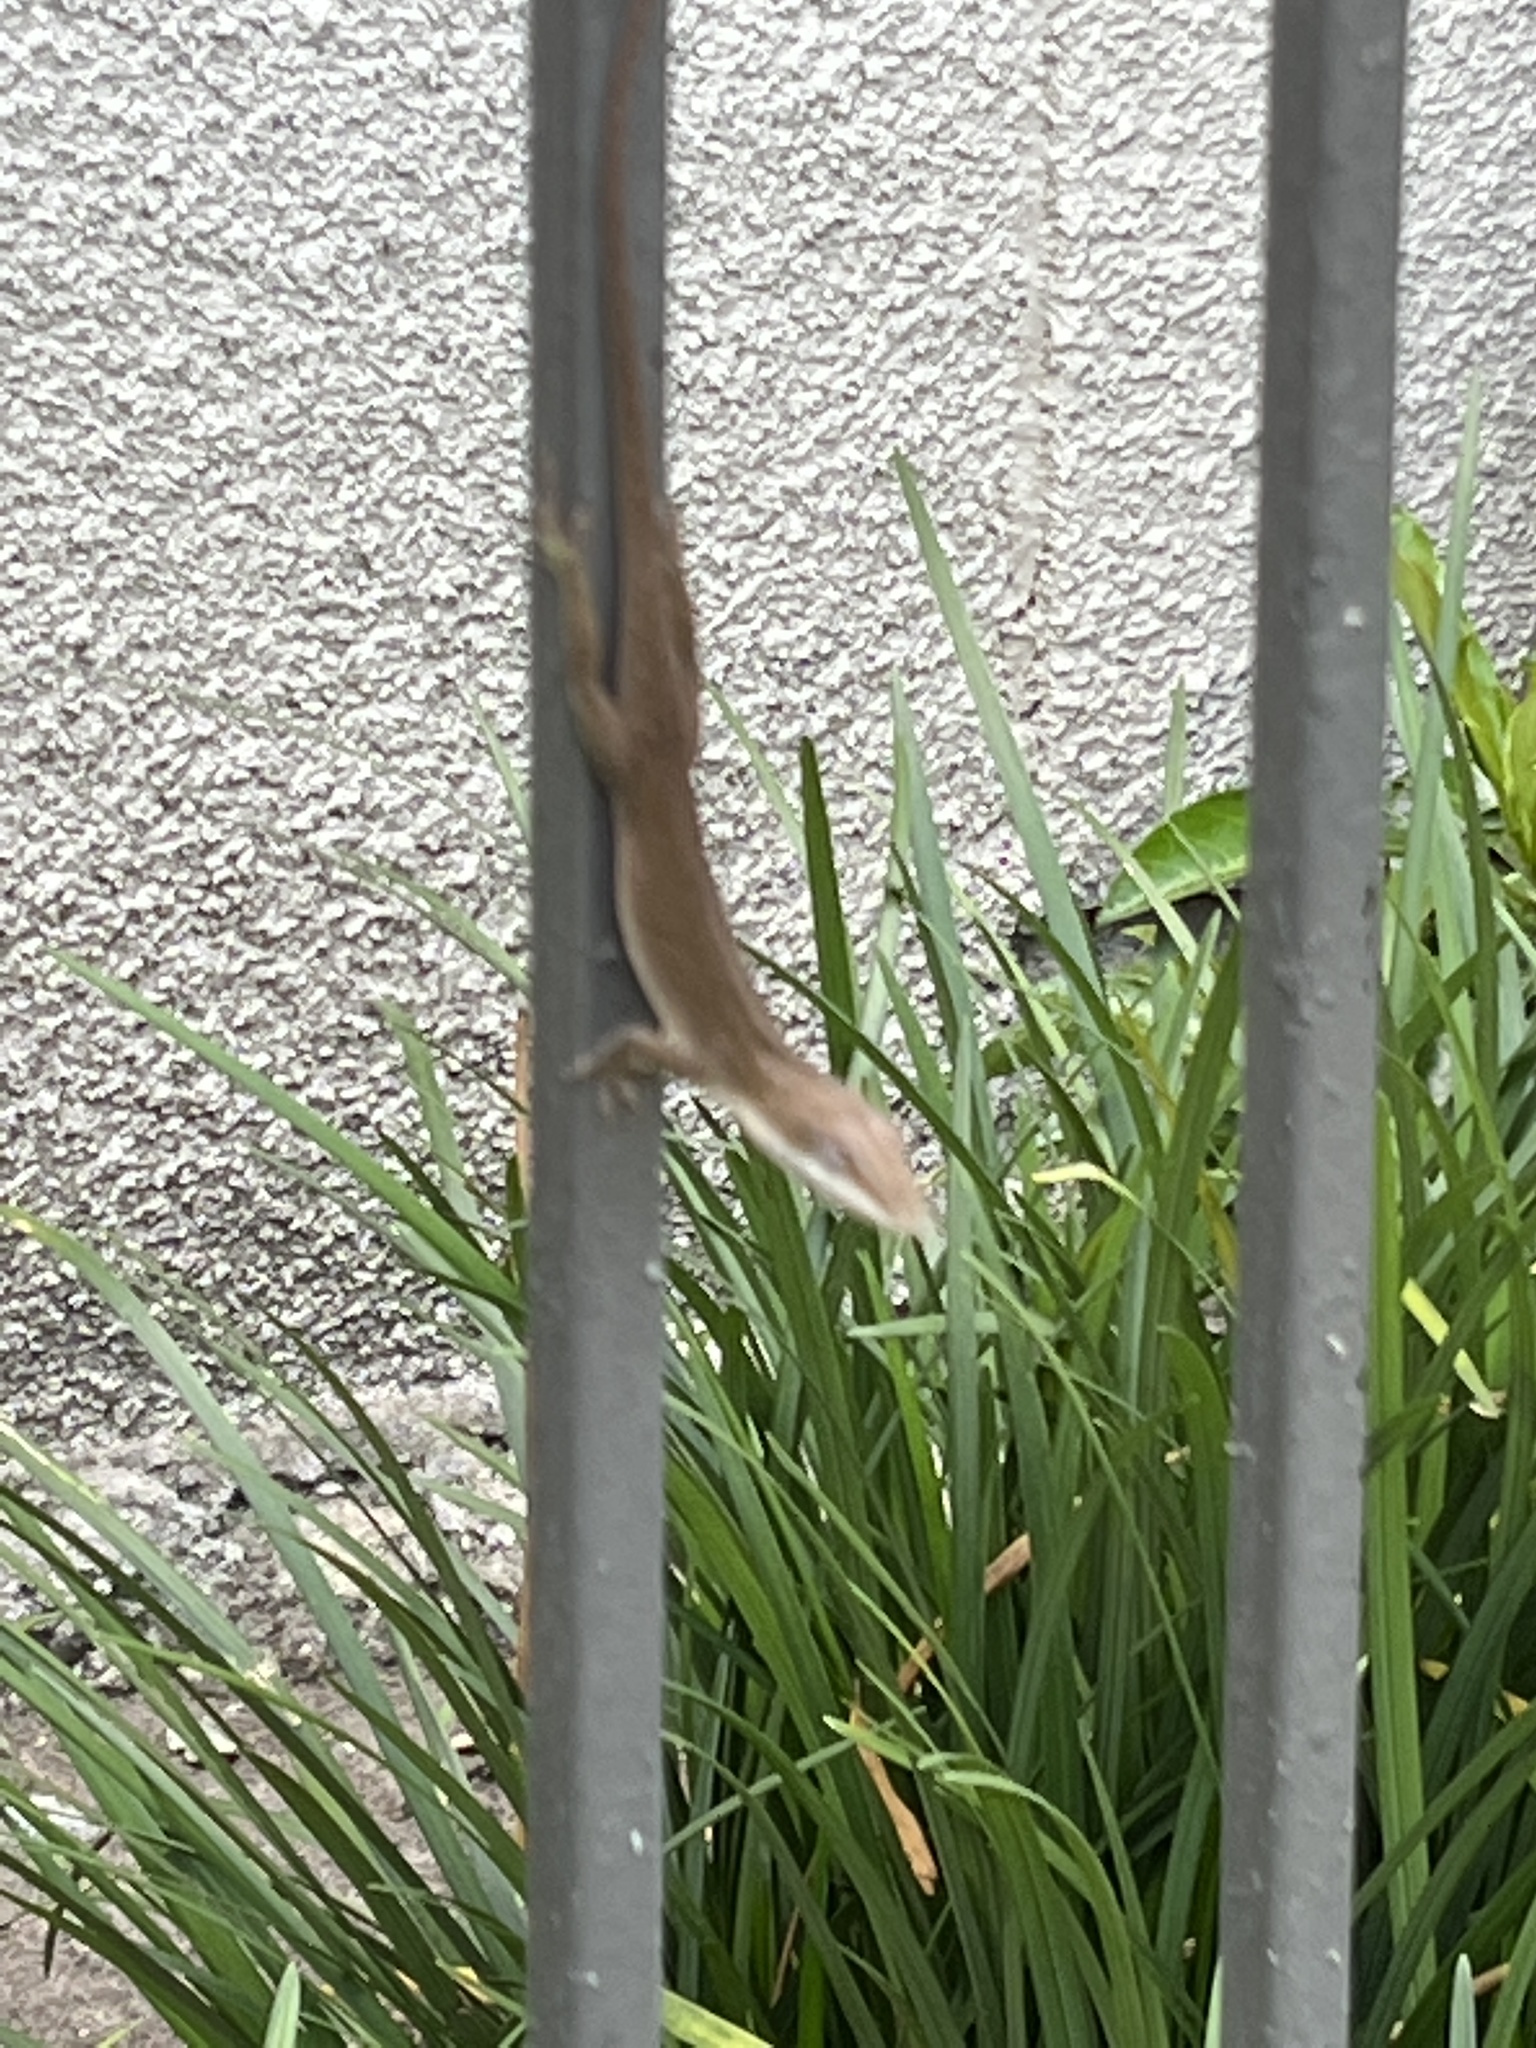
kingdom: Animalia
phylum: Chordata
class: Squamata
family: Dactyloidae
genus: Anolis
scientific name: Anolis carolinensis
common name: Green anole
